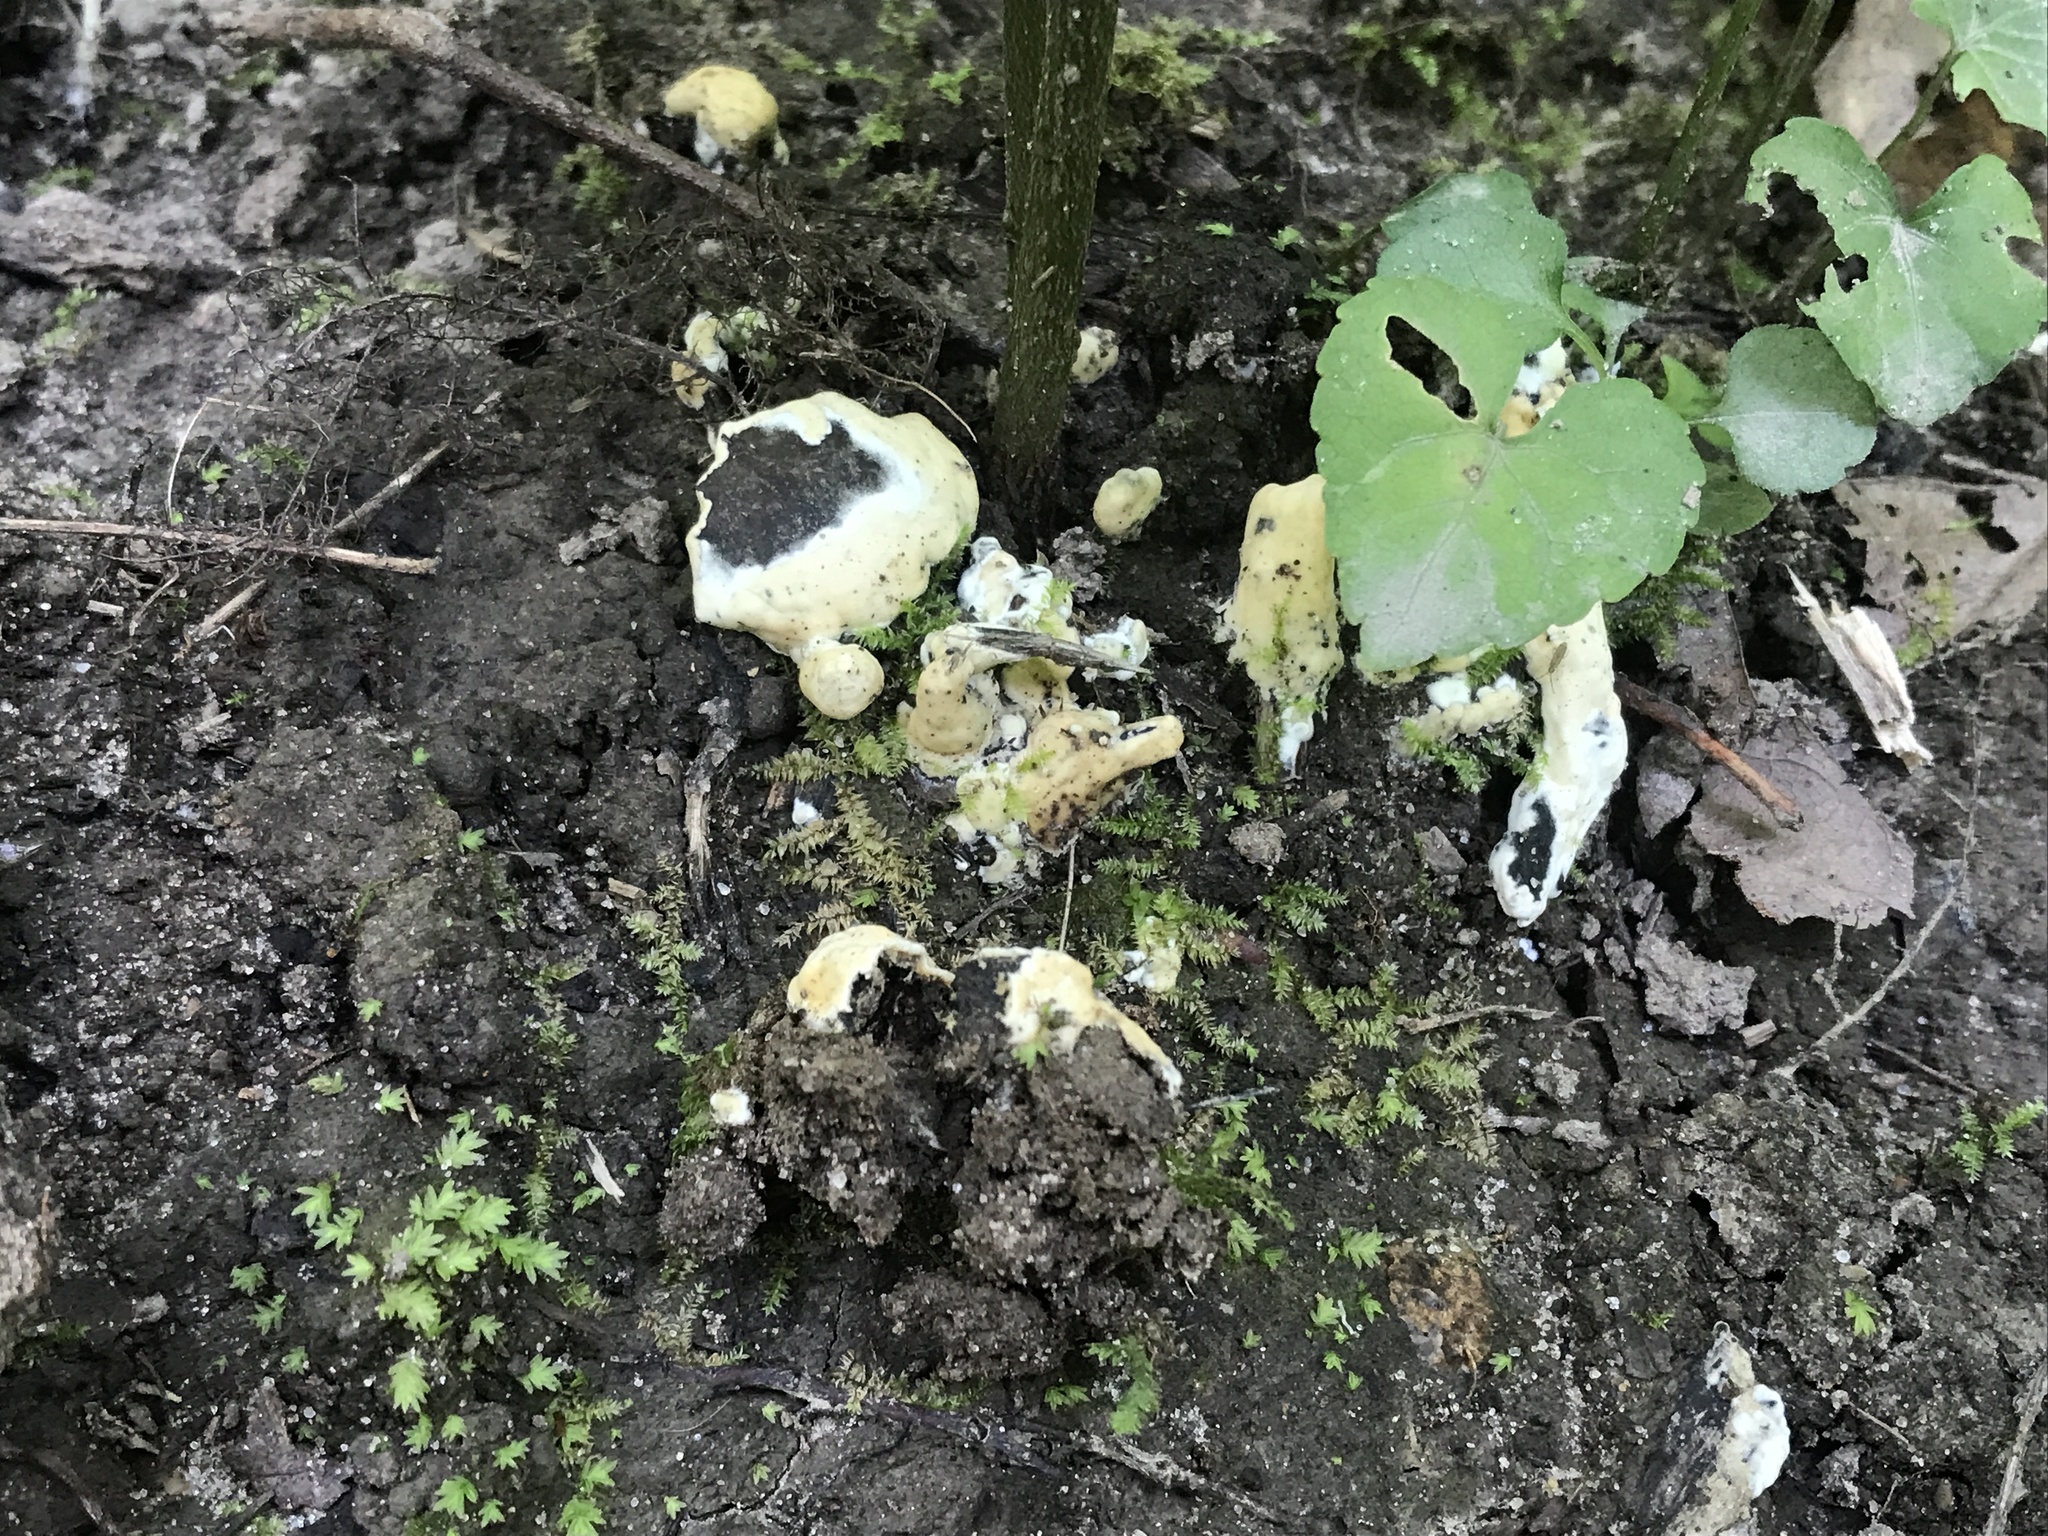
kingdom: Fungi
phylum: Basidiomycota
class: Agaricomycetes
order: Sebacinales
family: Sebacinaceae
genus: Sebacina
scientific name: Sebacina incrustans
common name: Enveloping crust
